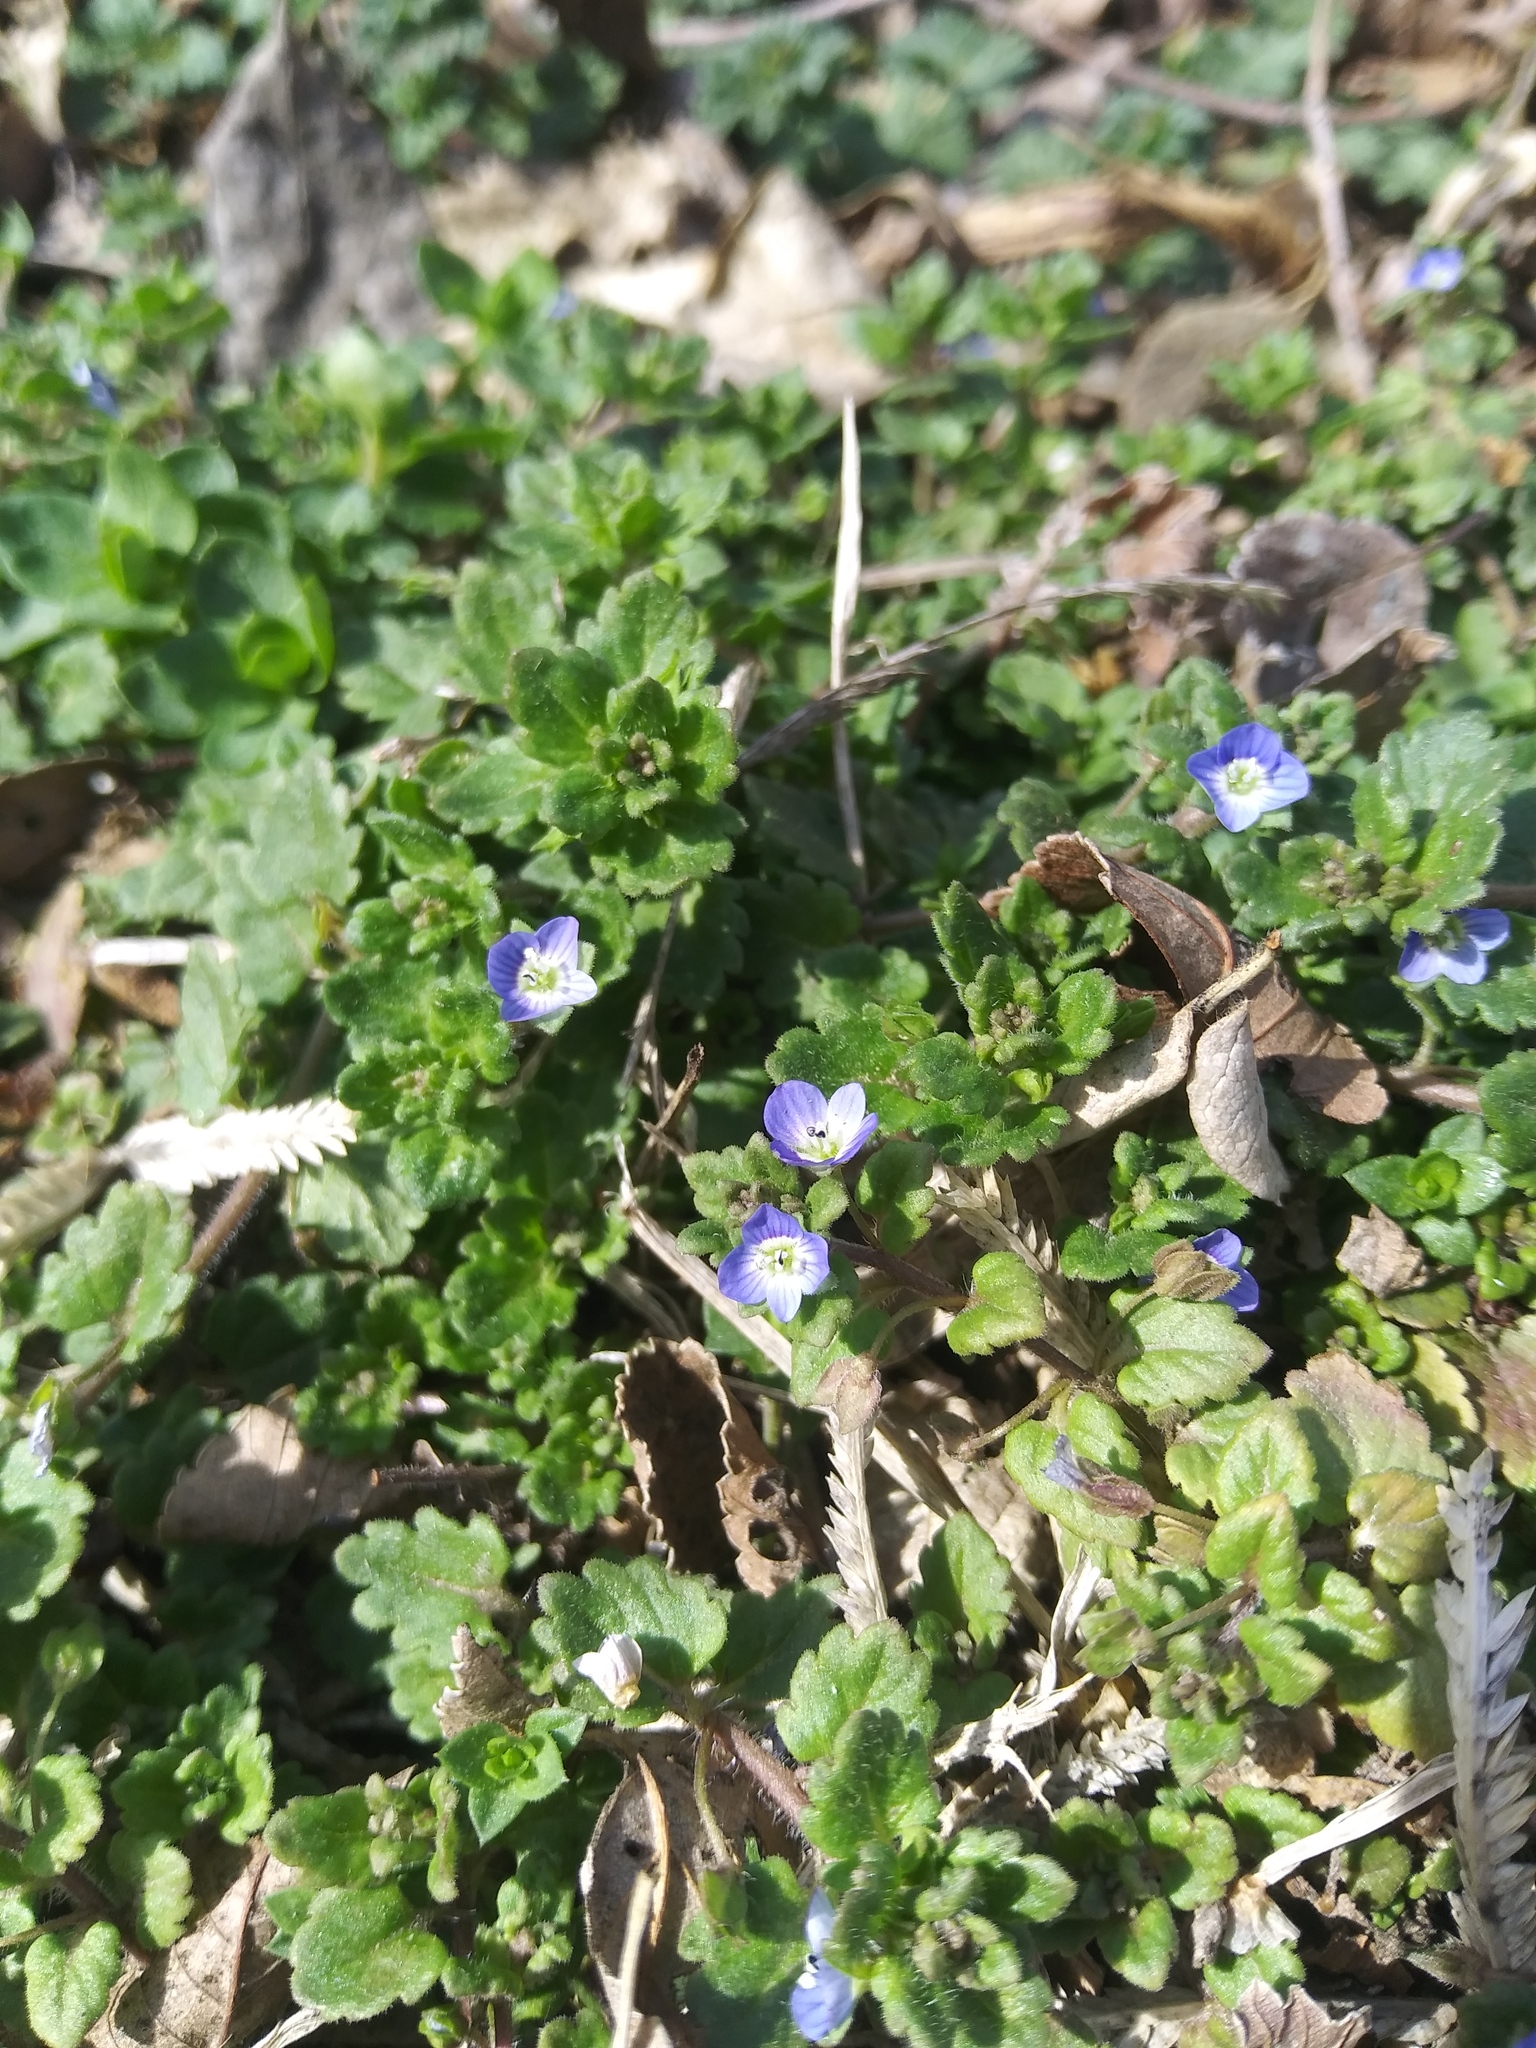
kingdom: Plantae
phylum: Tracheophyta
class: Magnoliopsida
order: Lamiales
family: Plantaginaceae
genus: Veronica
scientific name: Veronica persica
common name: Common field-speedwell
